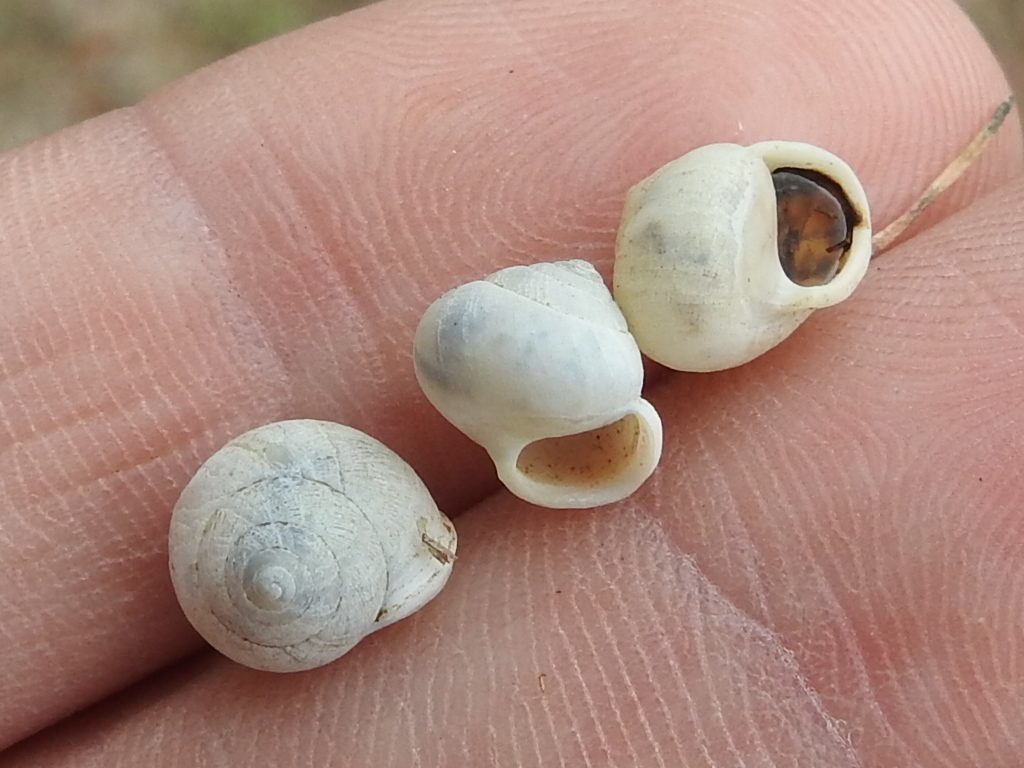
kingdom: Animalia
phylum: Mollusca
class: Gastropoda
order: Cycloneritida
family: Helicinidae
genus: Helicina
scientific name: Helicina orbiculata
